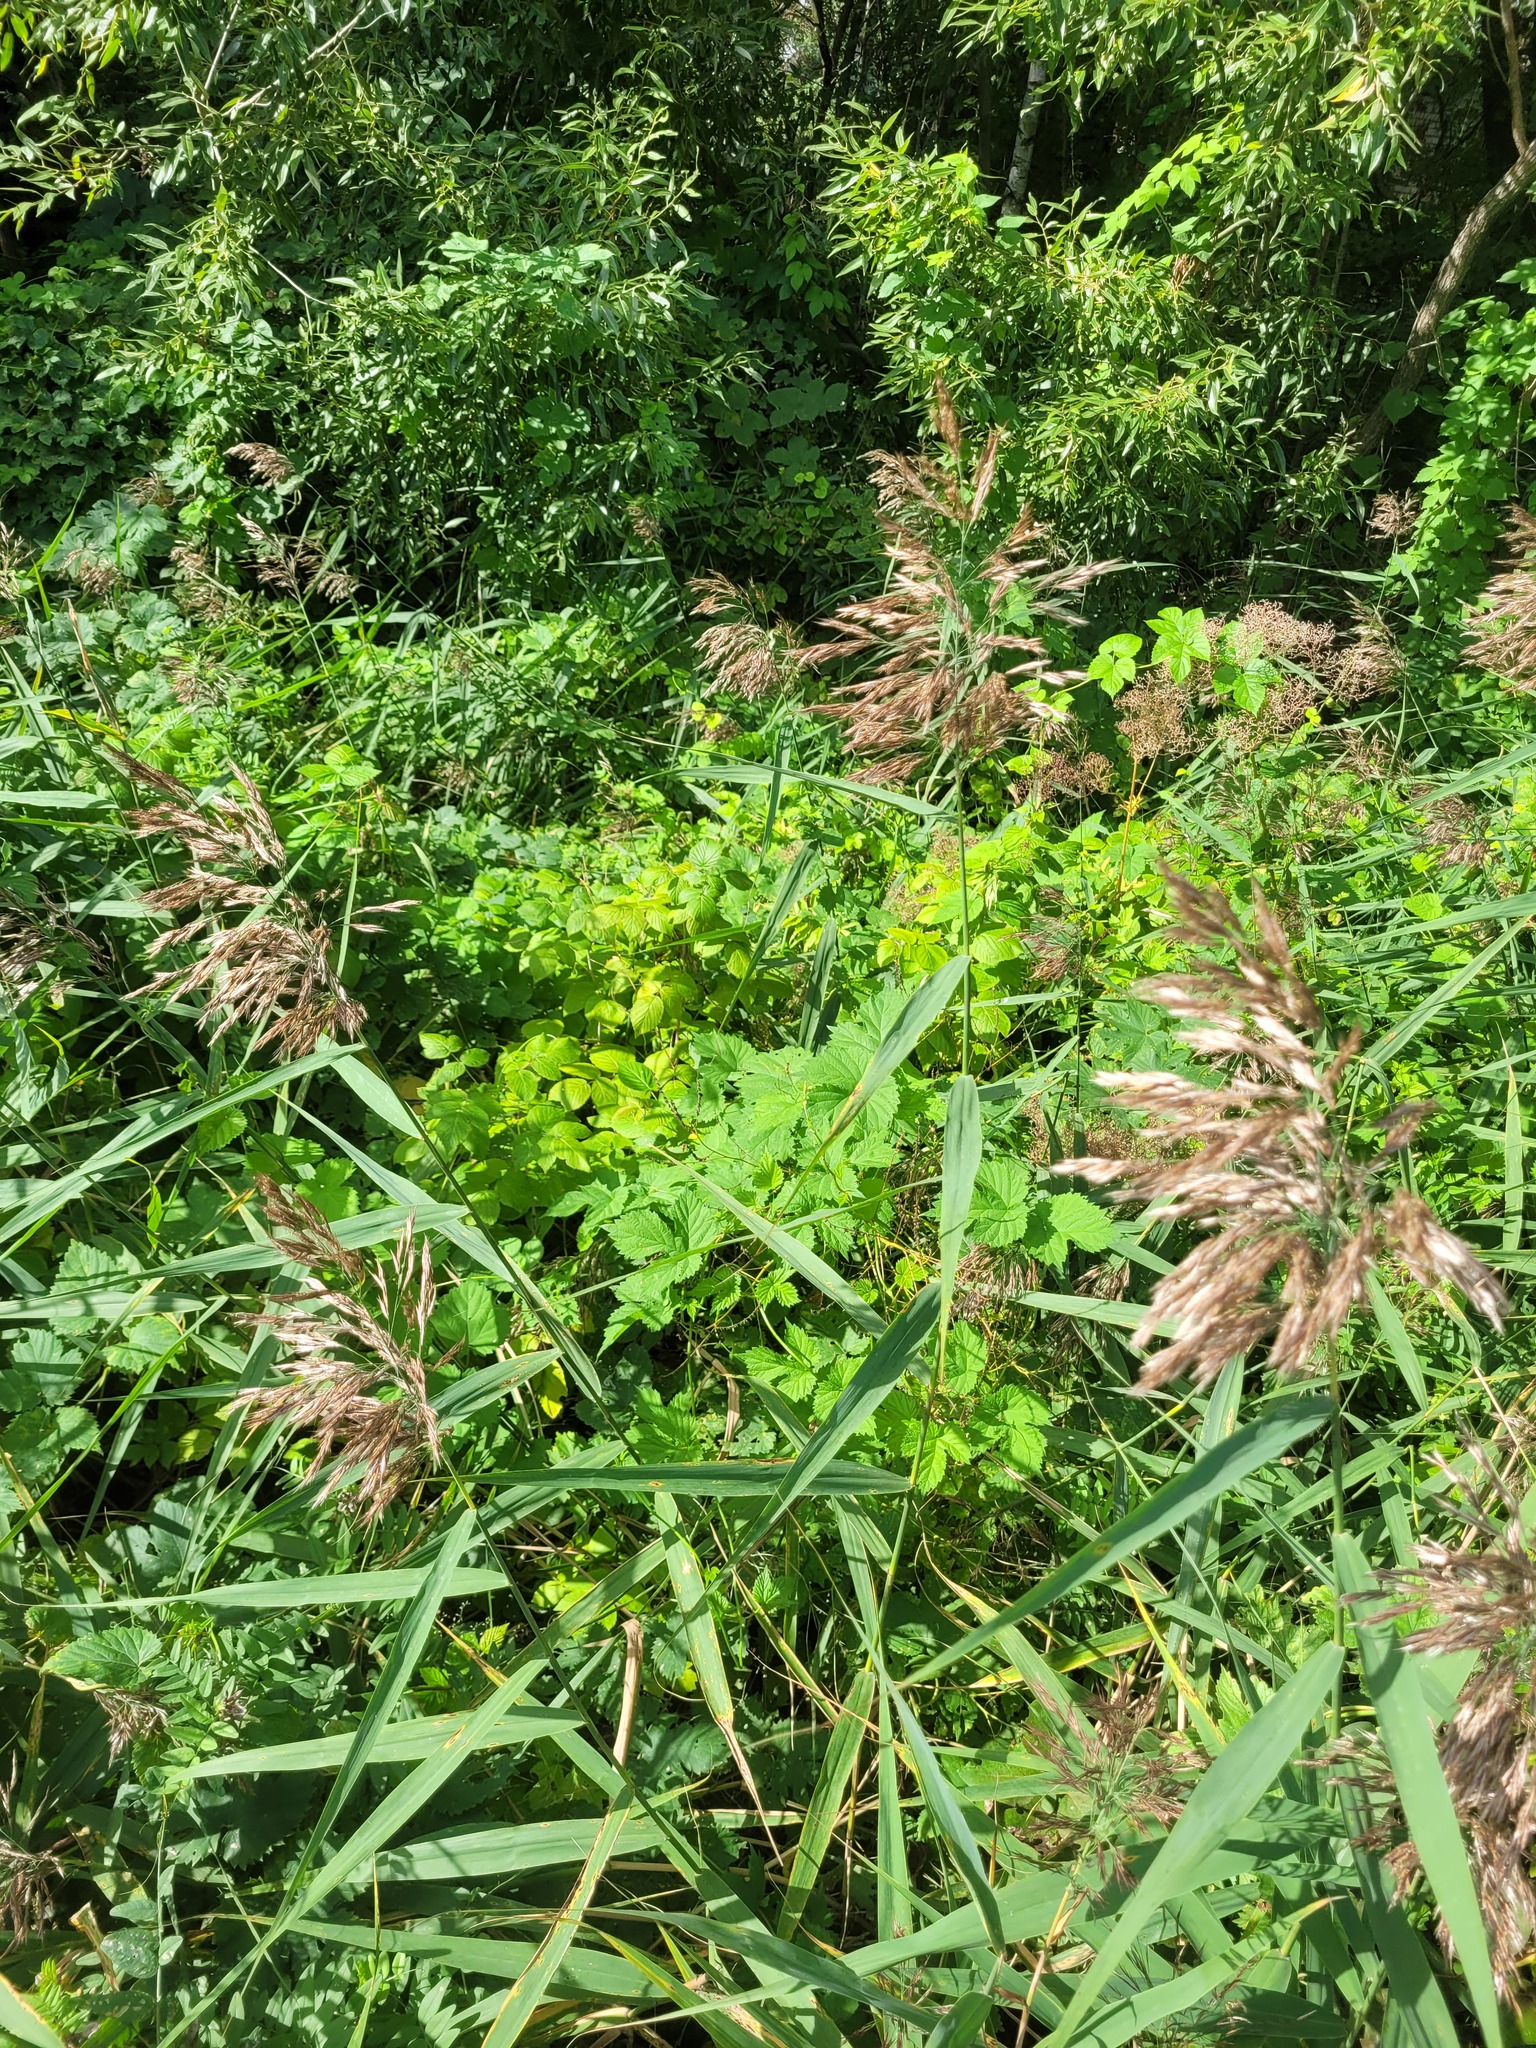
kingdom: Plantae
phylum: Tracheophyta
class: Magnoliopsida
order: Rosales
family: Cannabaceae
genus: Humulus
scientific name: Humulus lupulus
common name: Hop
